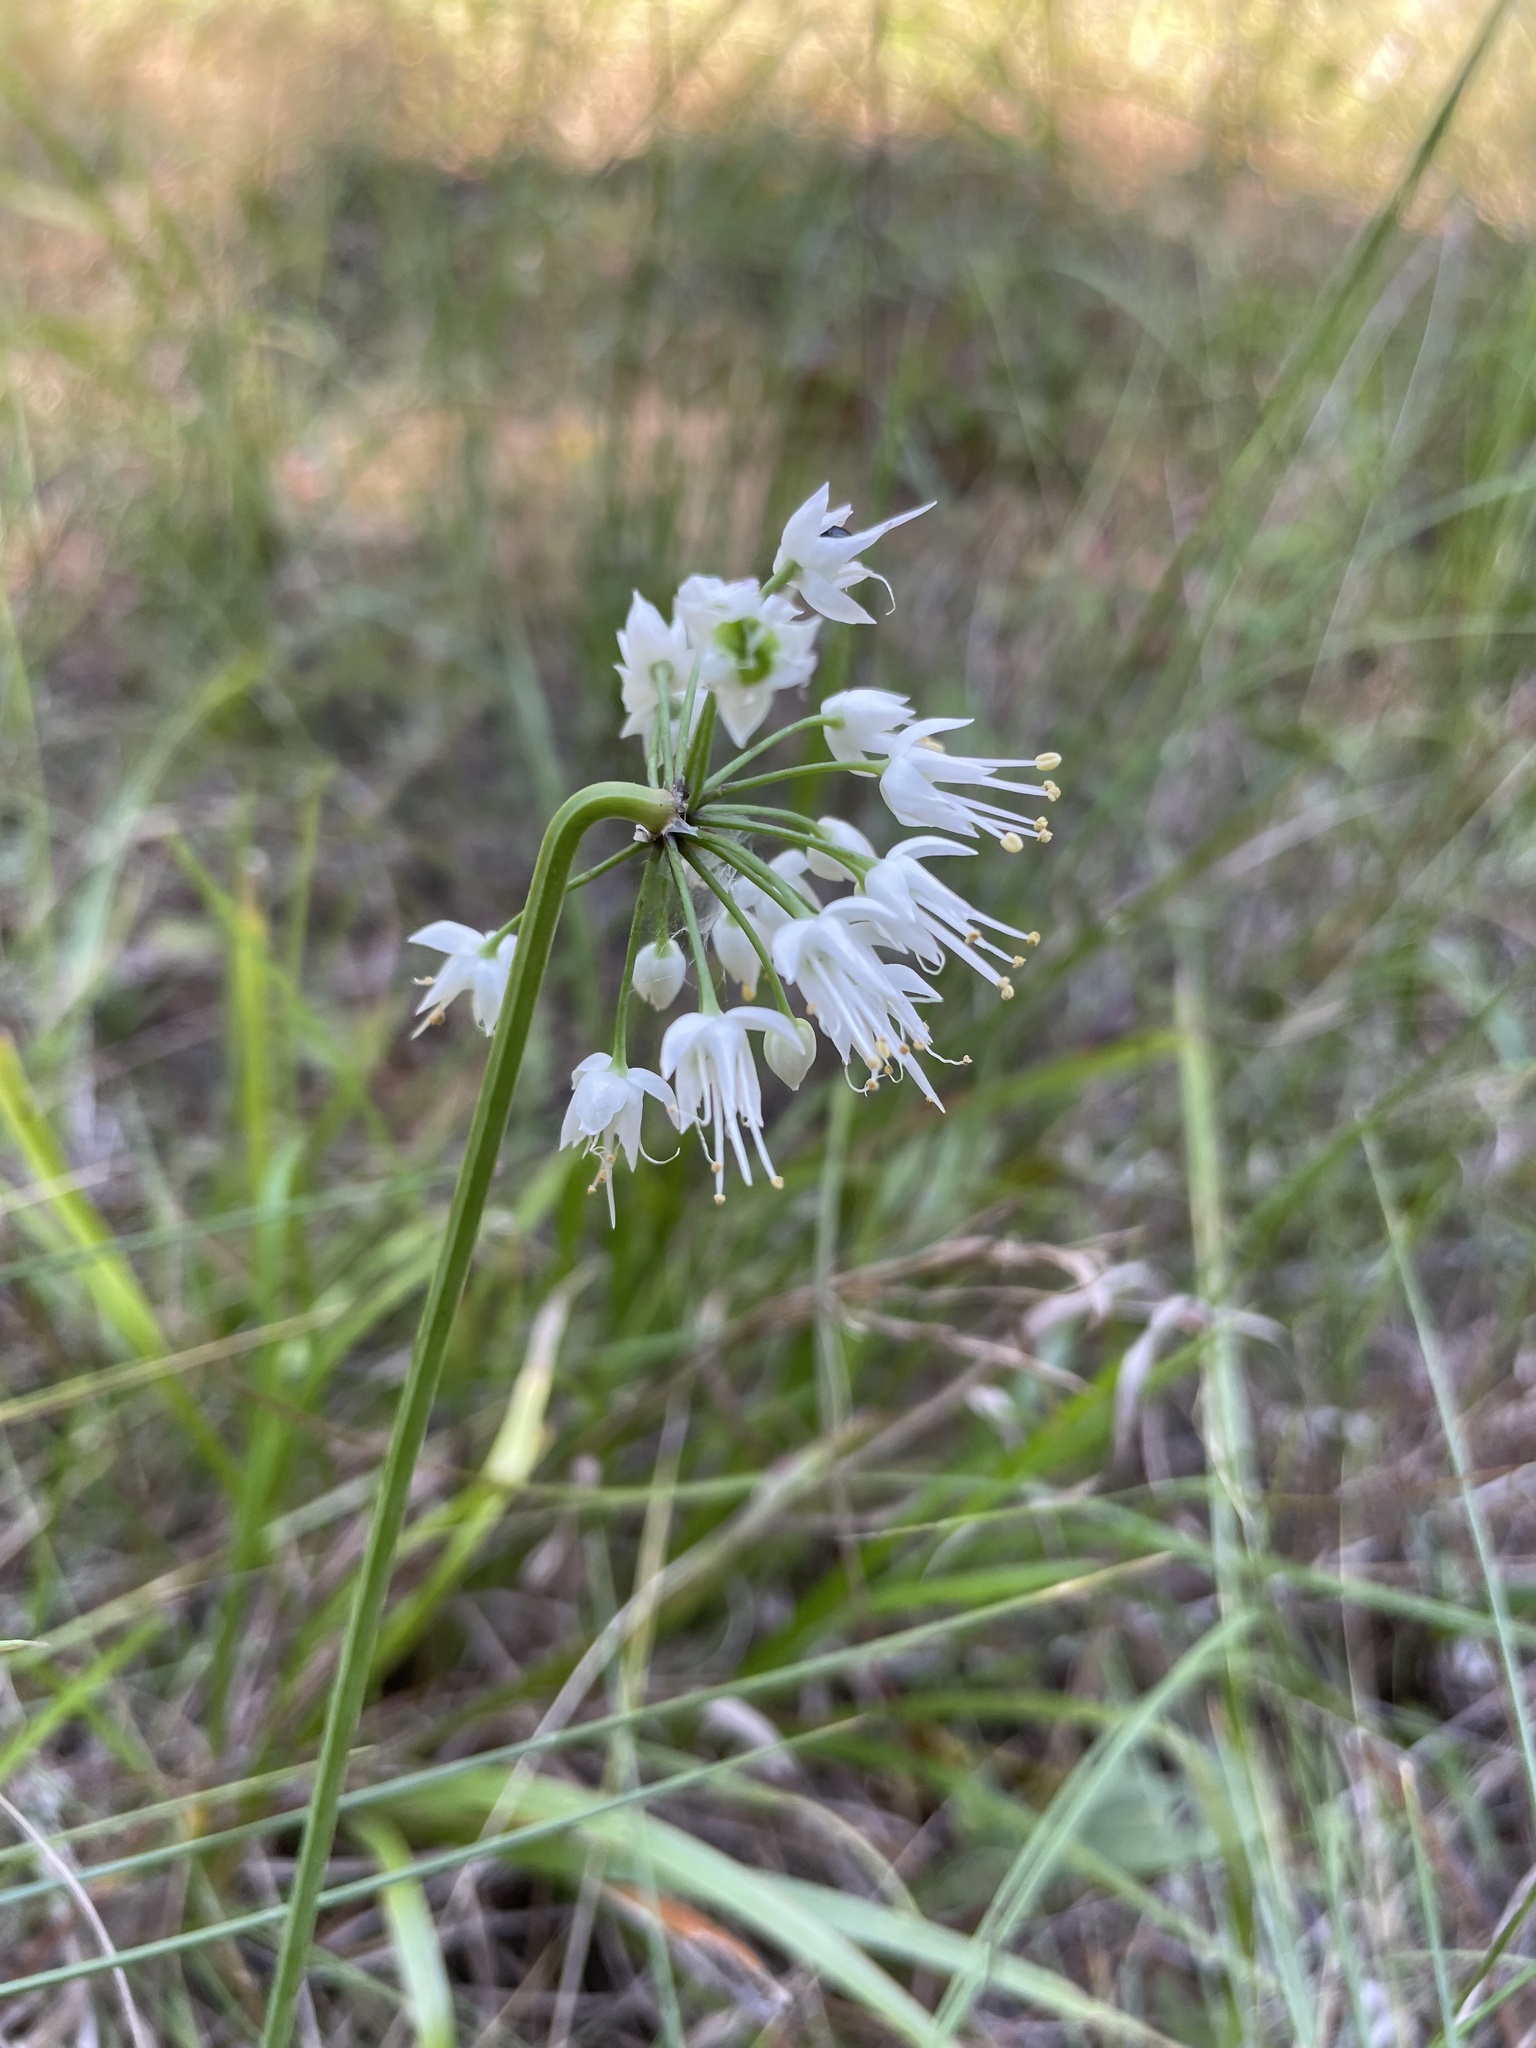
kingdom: Plantae
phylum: Tracheophyta
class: Liliopsida
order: Asparagales
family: Amaryllidaceae
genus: Allium
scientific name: Allium cernuum
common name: Nodding onion
